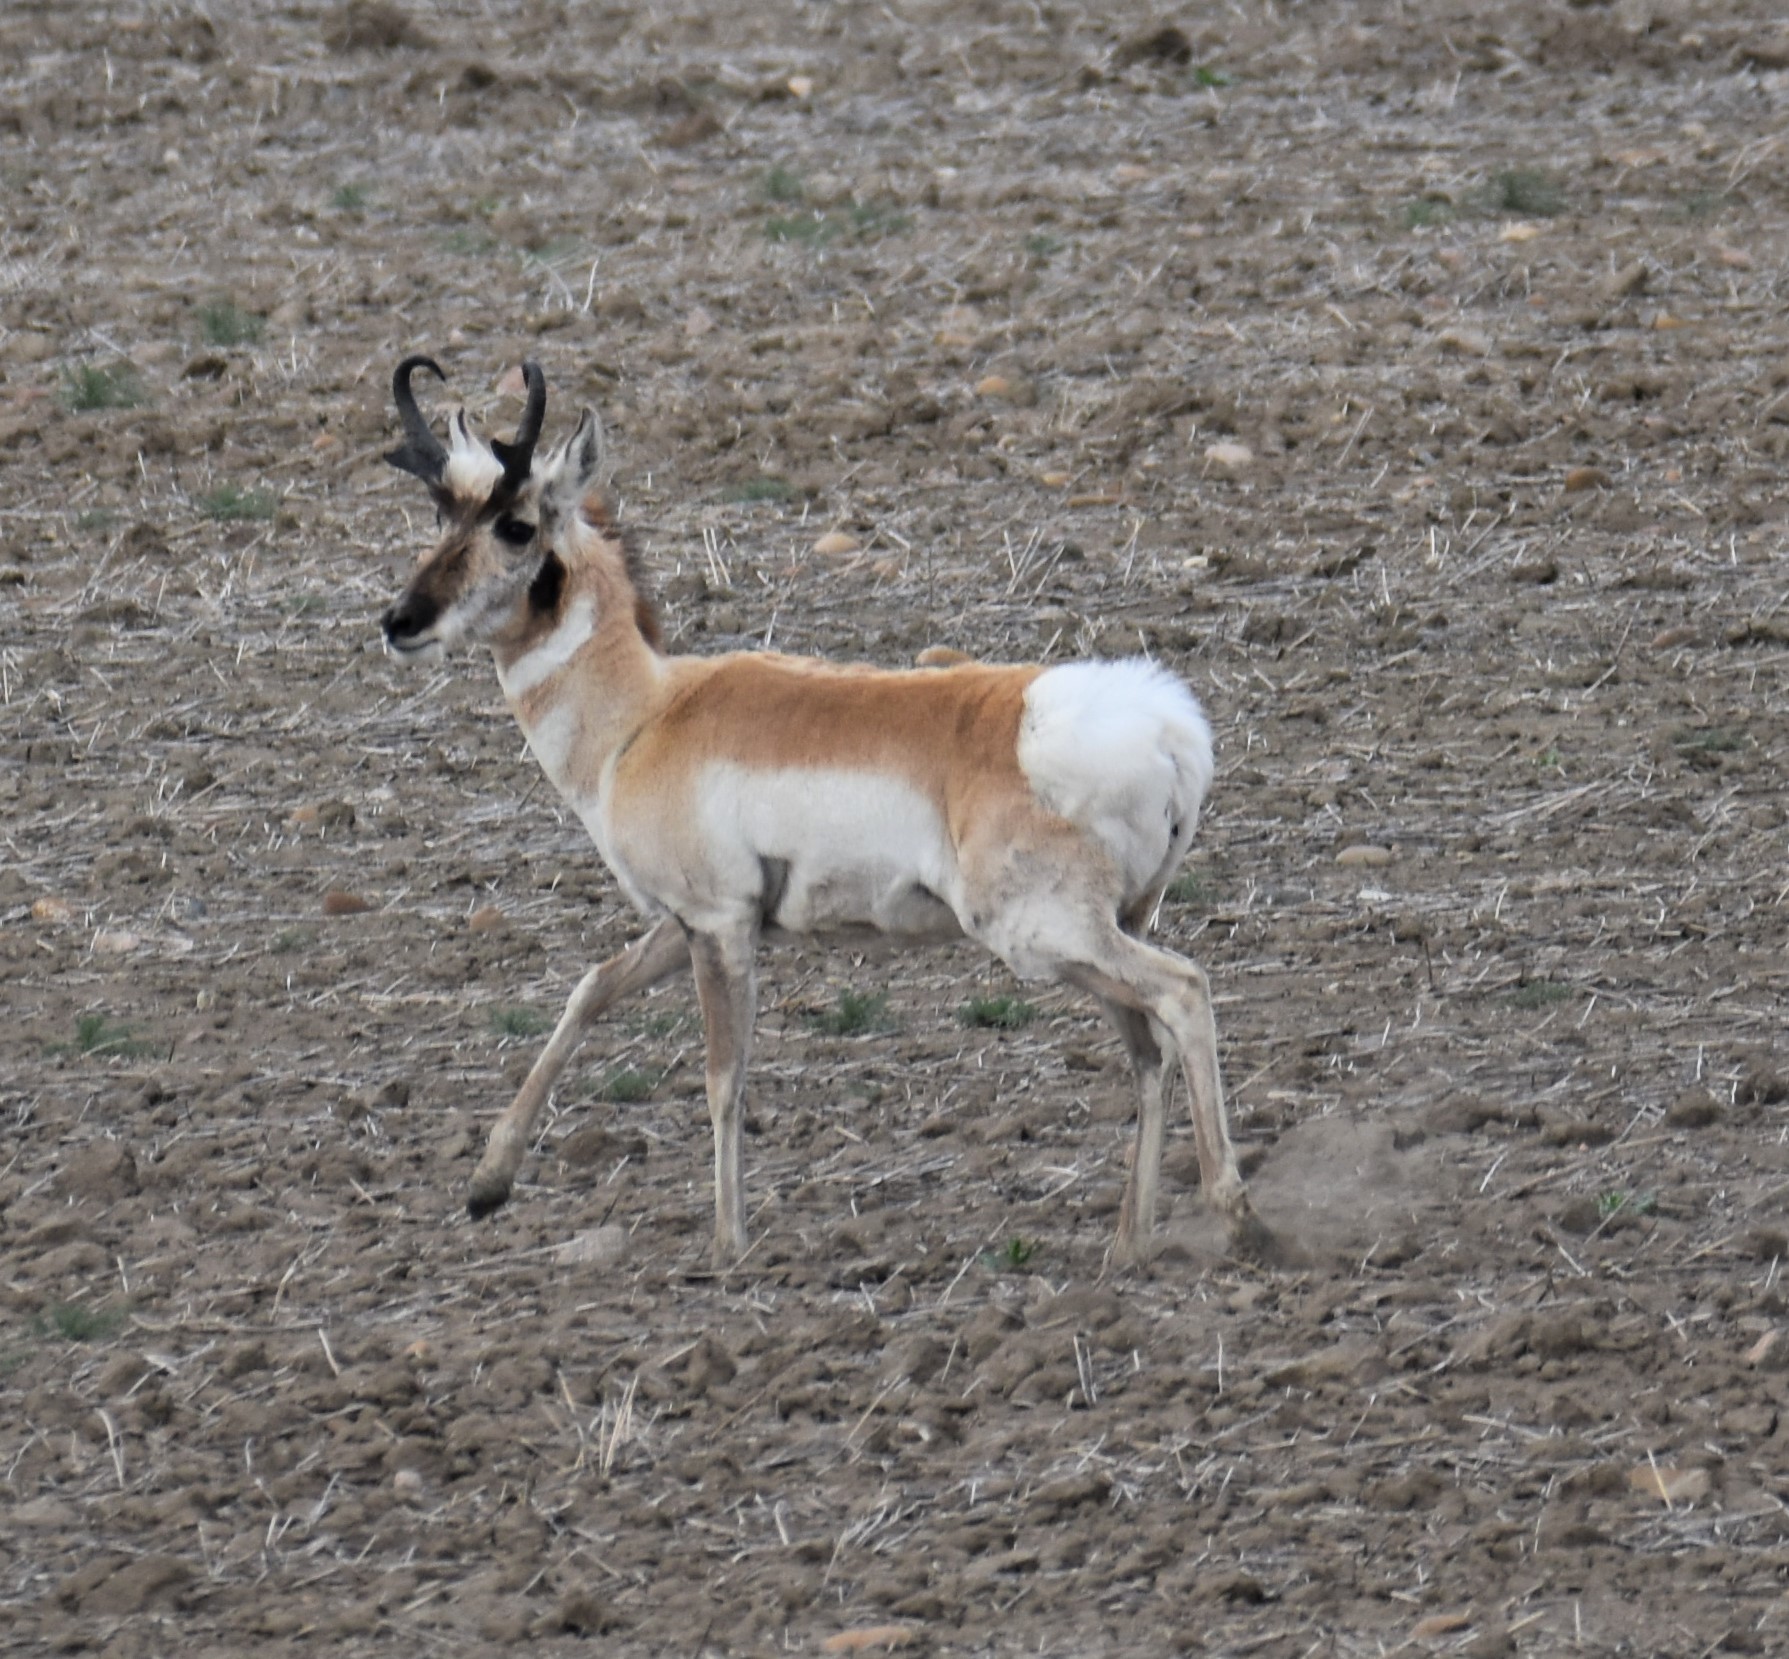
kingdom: Animalia
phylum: Chordata
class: Mammalia
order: Artiodactyla
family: Antilocapridae
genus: Antilocapra
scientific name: Antilocapra americana
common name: Pronghorn
